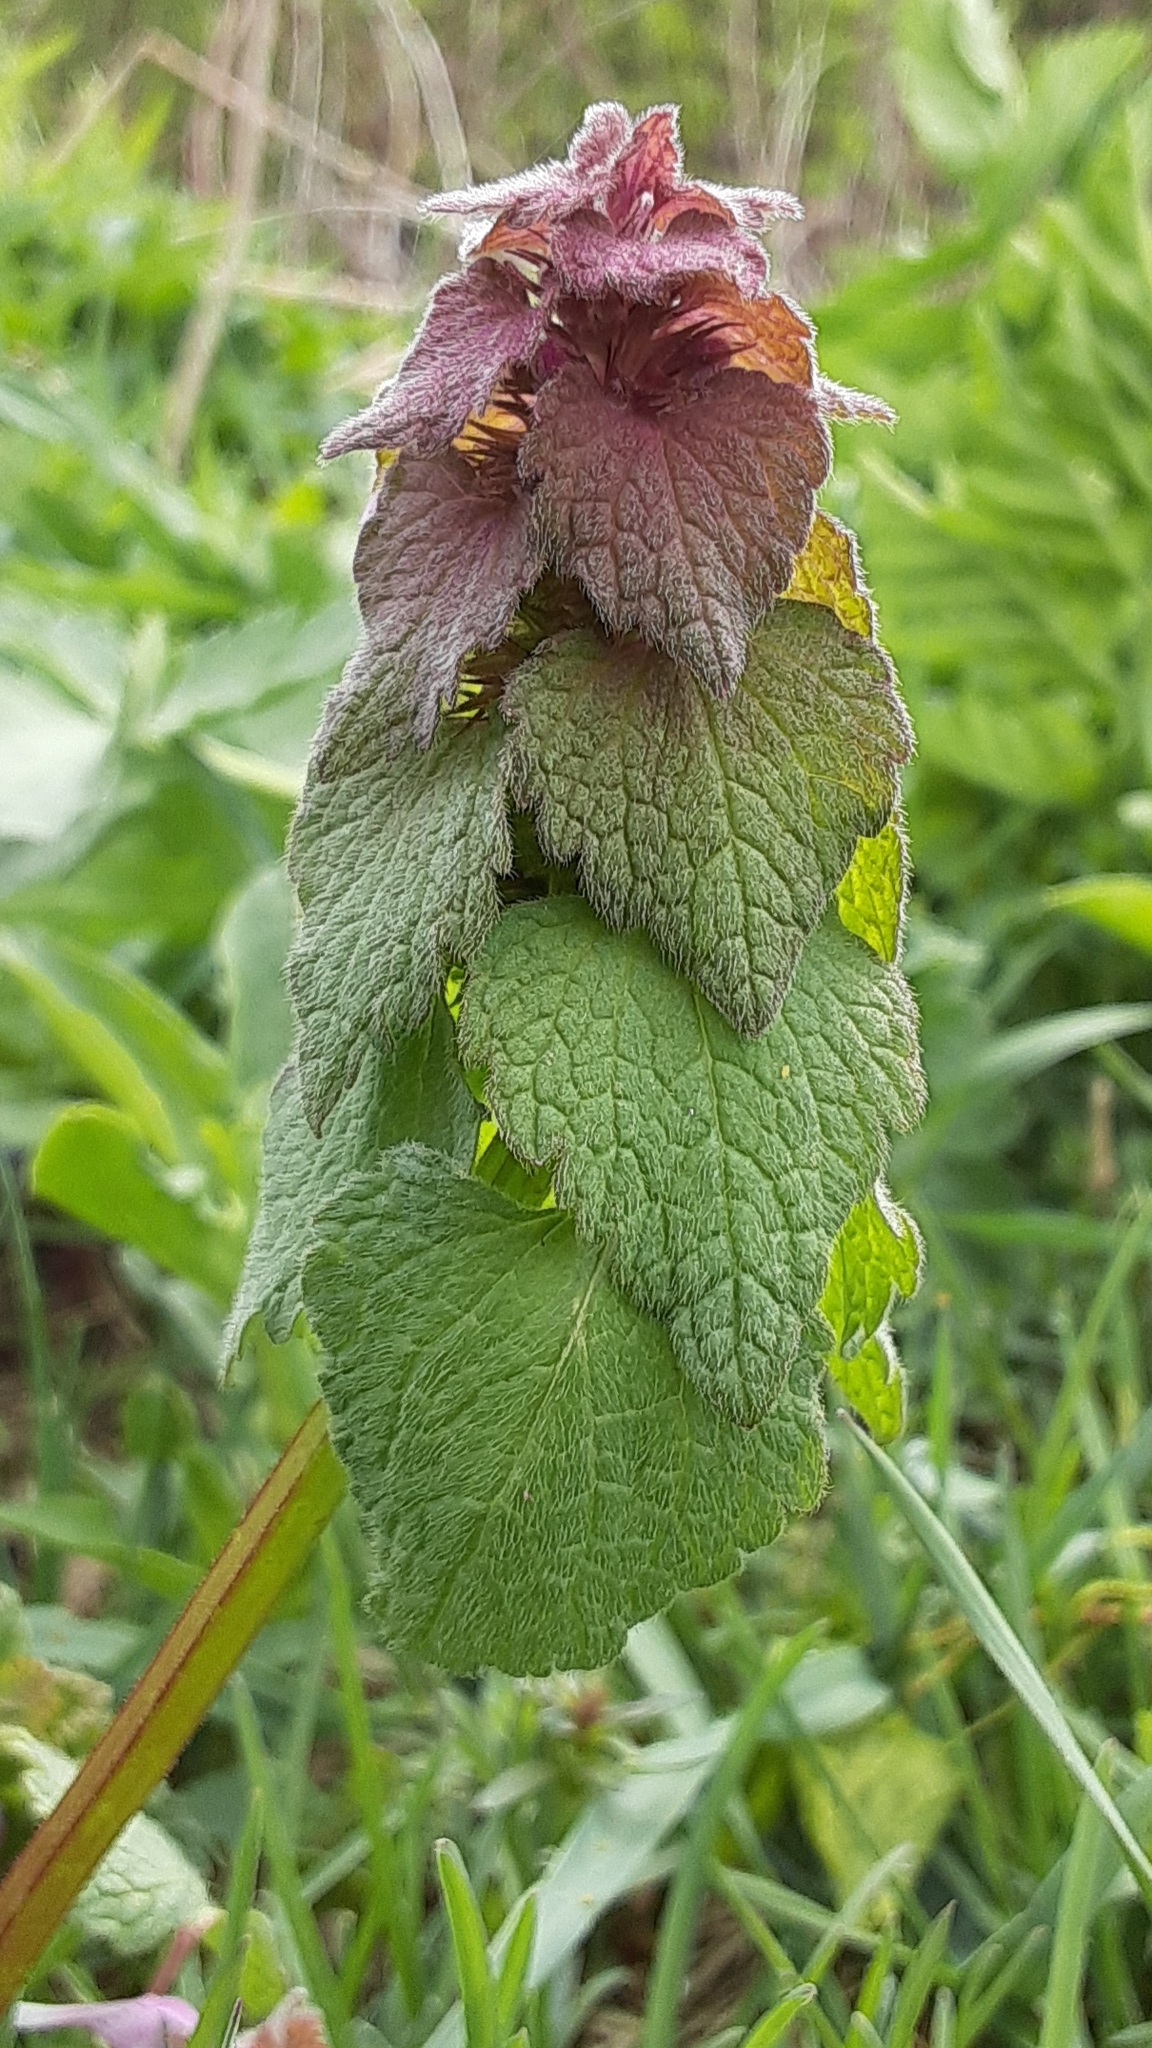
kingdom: Plantae
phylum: Tracheophyta
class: Magnoliopsida
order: Lamiales
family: Lamiaceae
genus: Lamium
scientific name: Lamium purpureum
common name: Red dead-nettle
